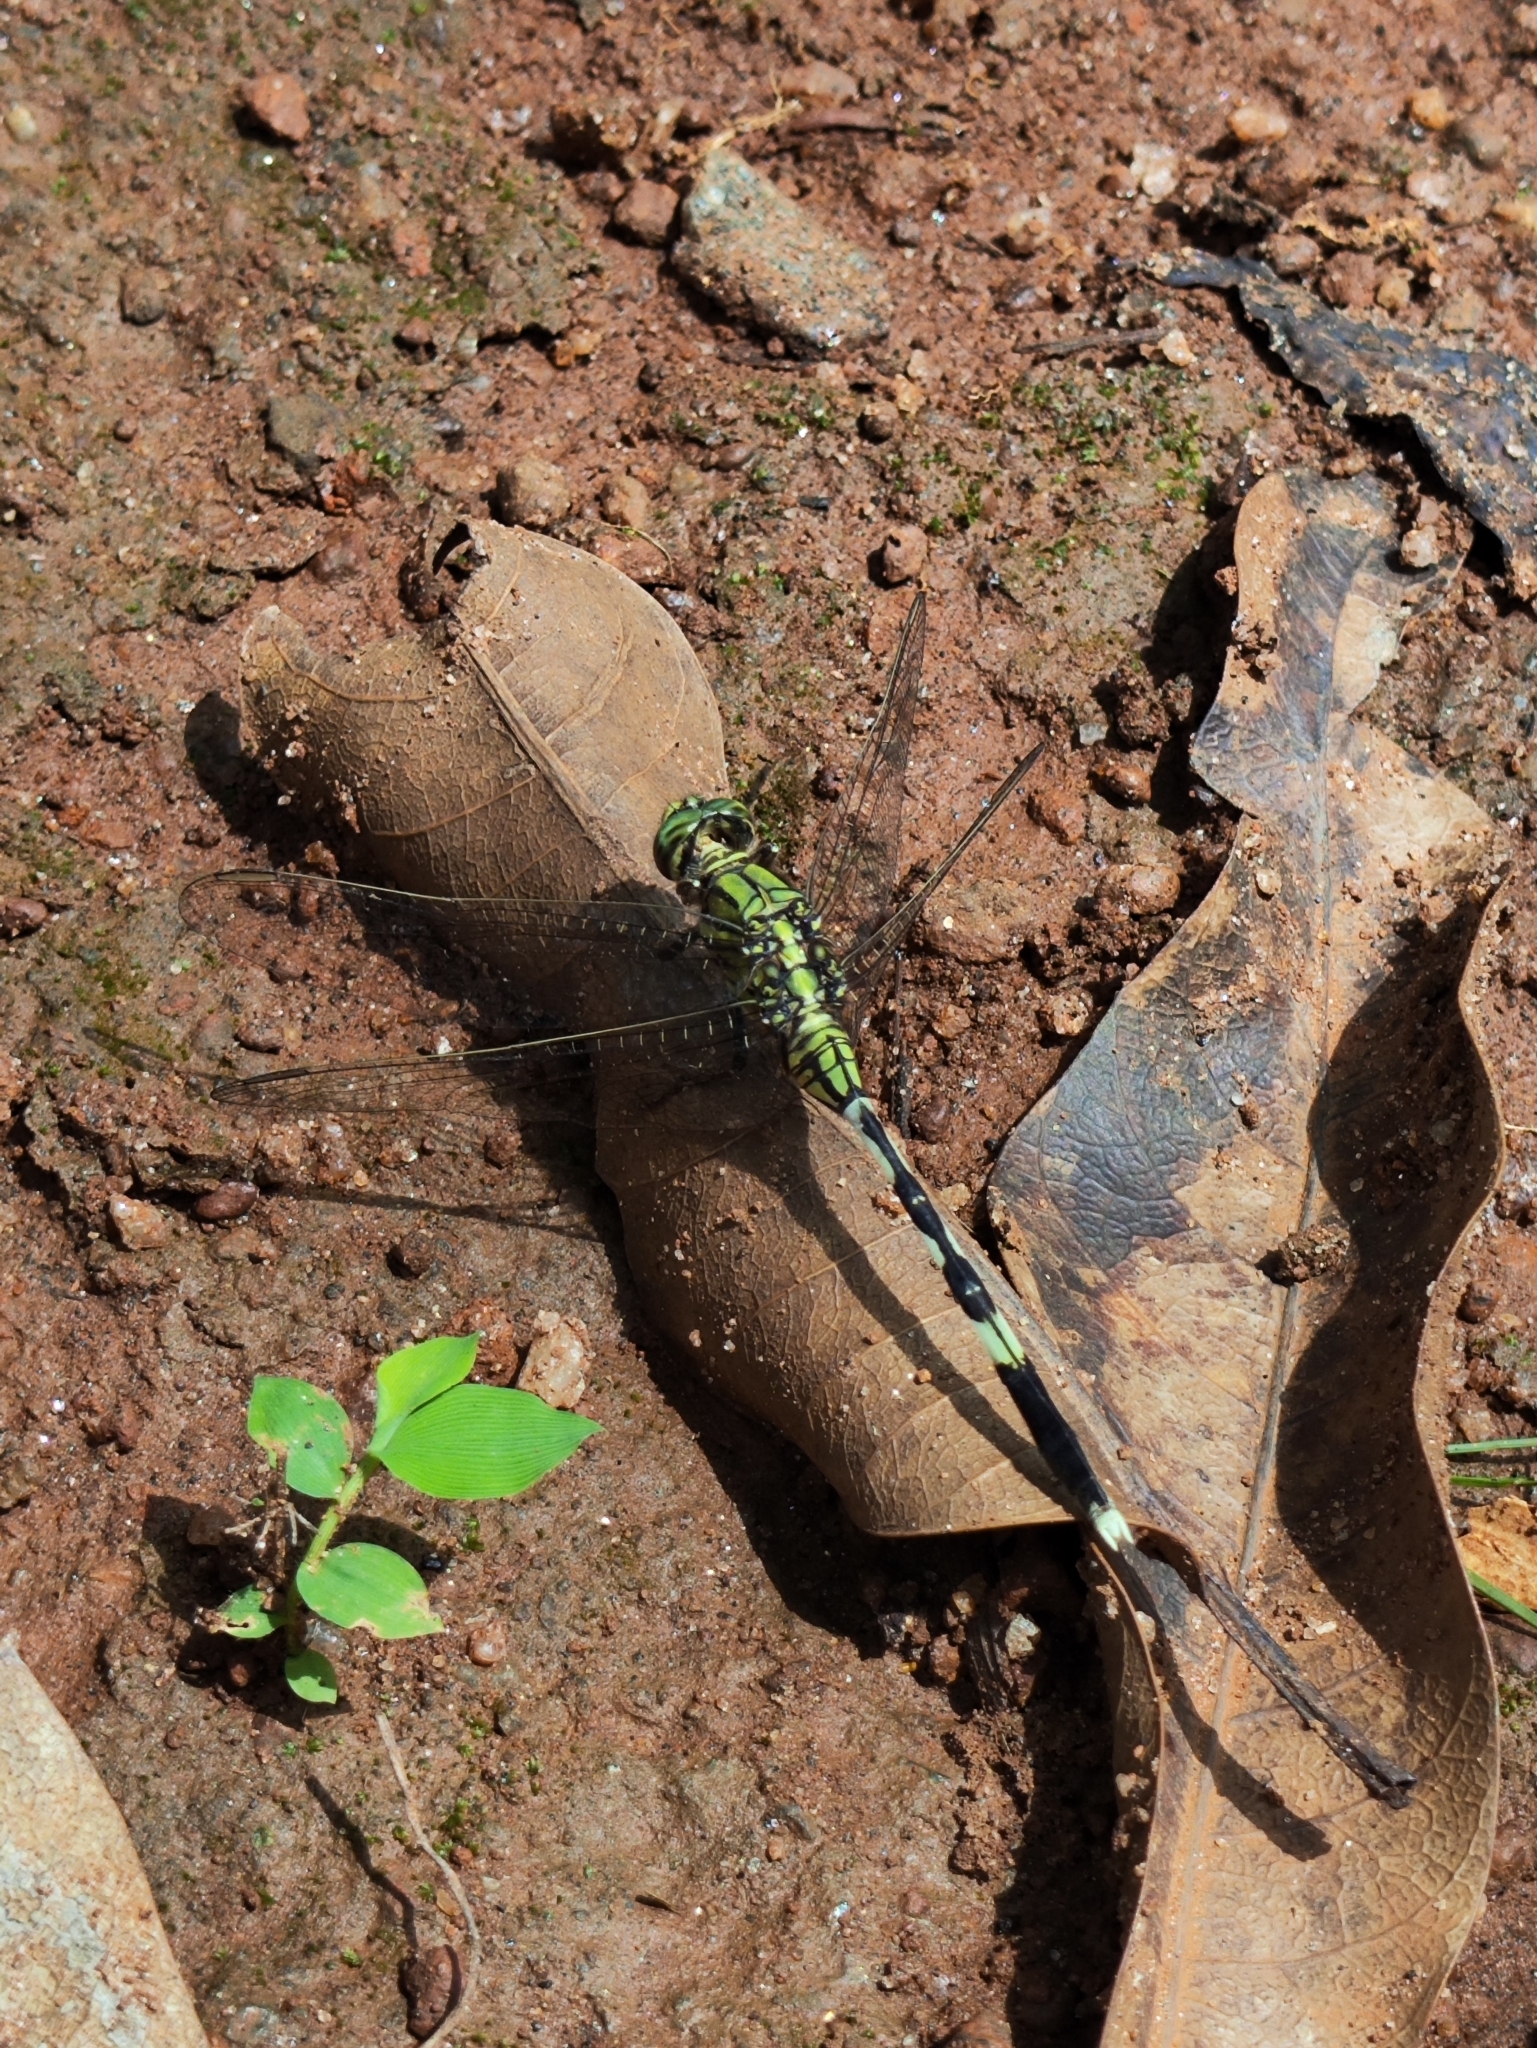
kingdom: Animalia
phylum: Arthropoda
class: Insecta
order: Odonata
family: Libellulidae
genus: Orthetrum
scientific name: Orthetrum sabina
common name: Slender skimmer
